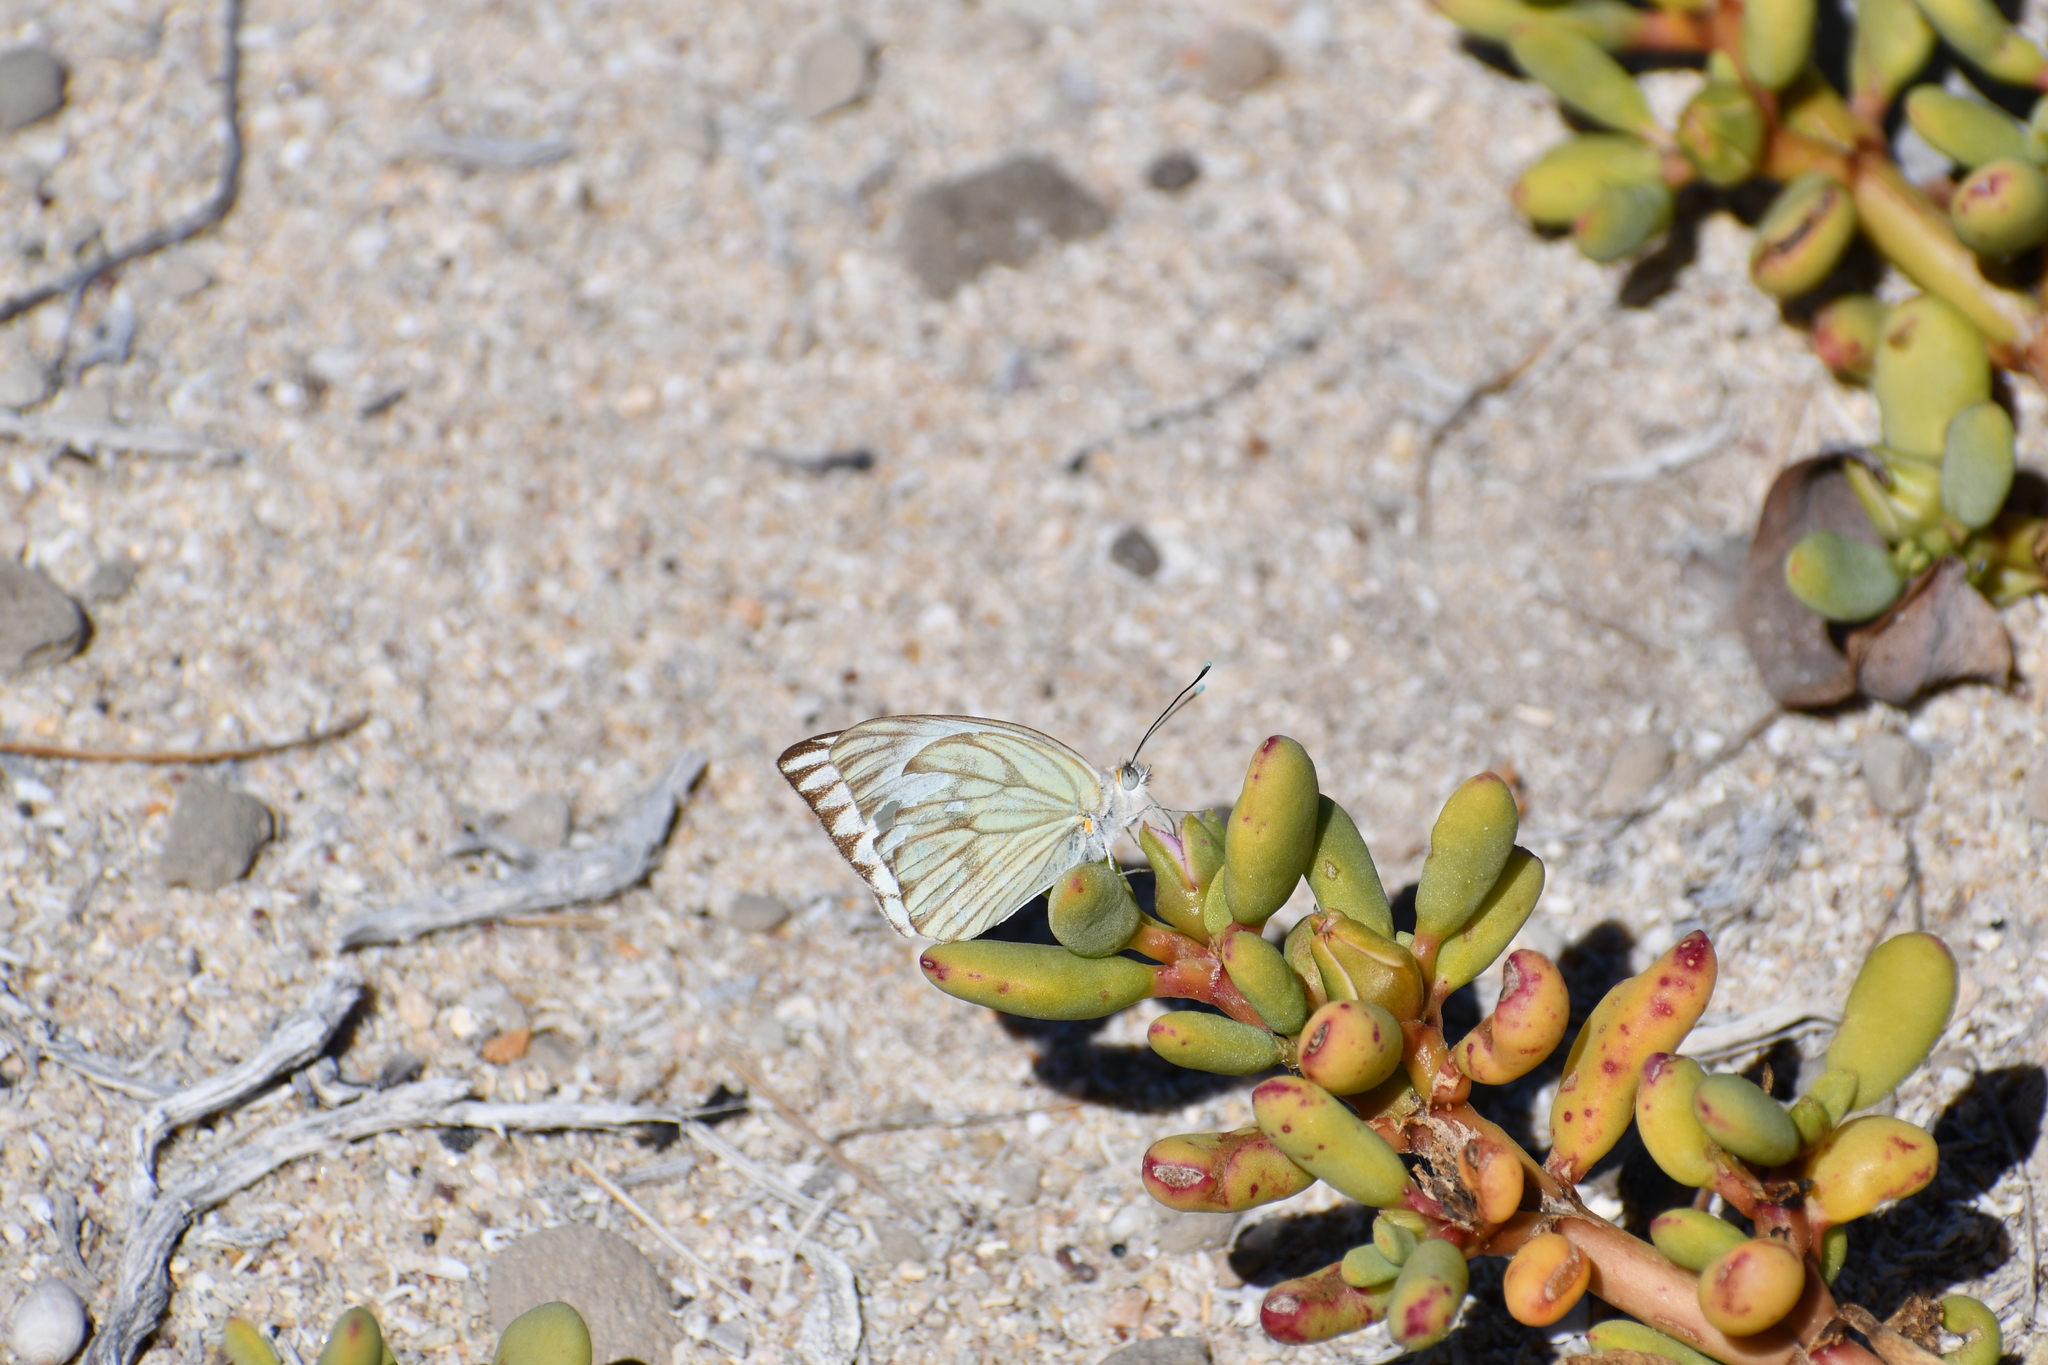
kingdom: Animalia
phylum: Arthropoda
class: Insecta
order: Lepidoptera
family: Pieridae
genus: Ascia
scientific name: Ascia monuste
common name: Great southern white
